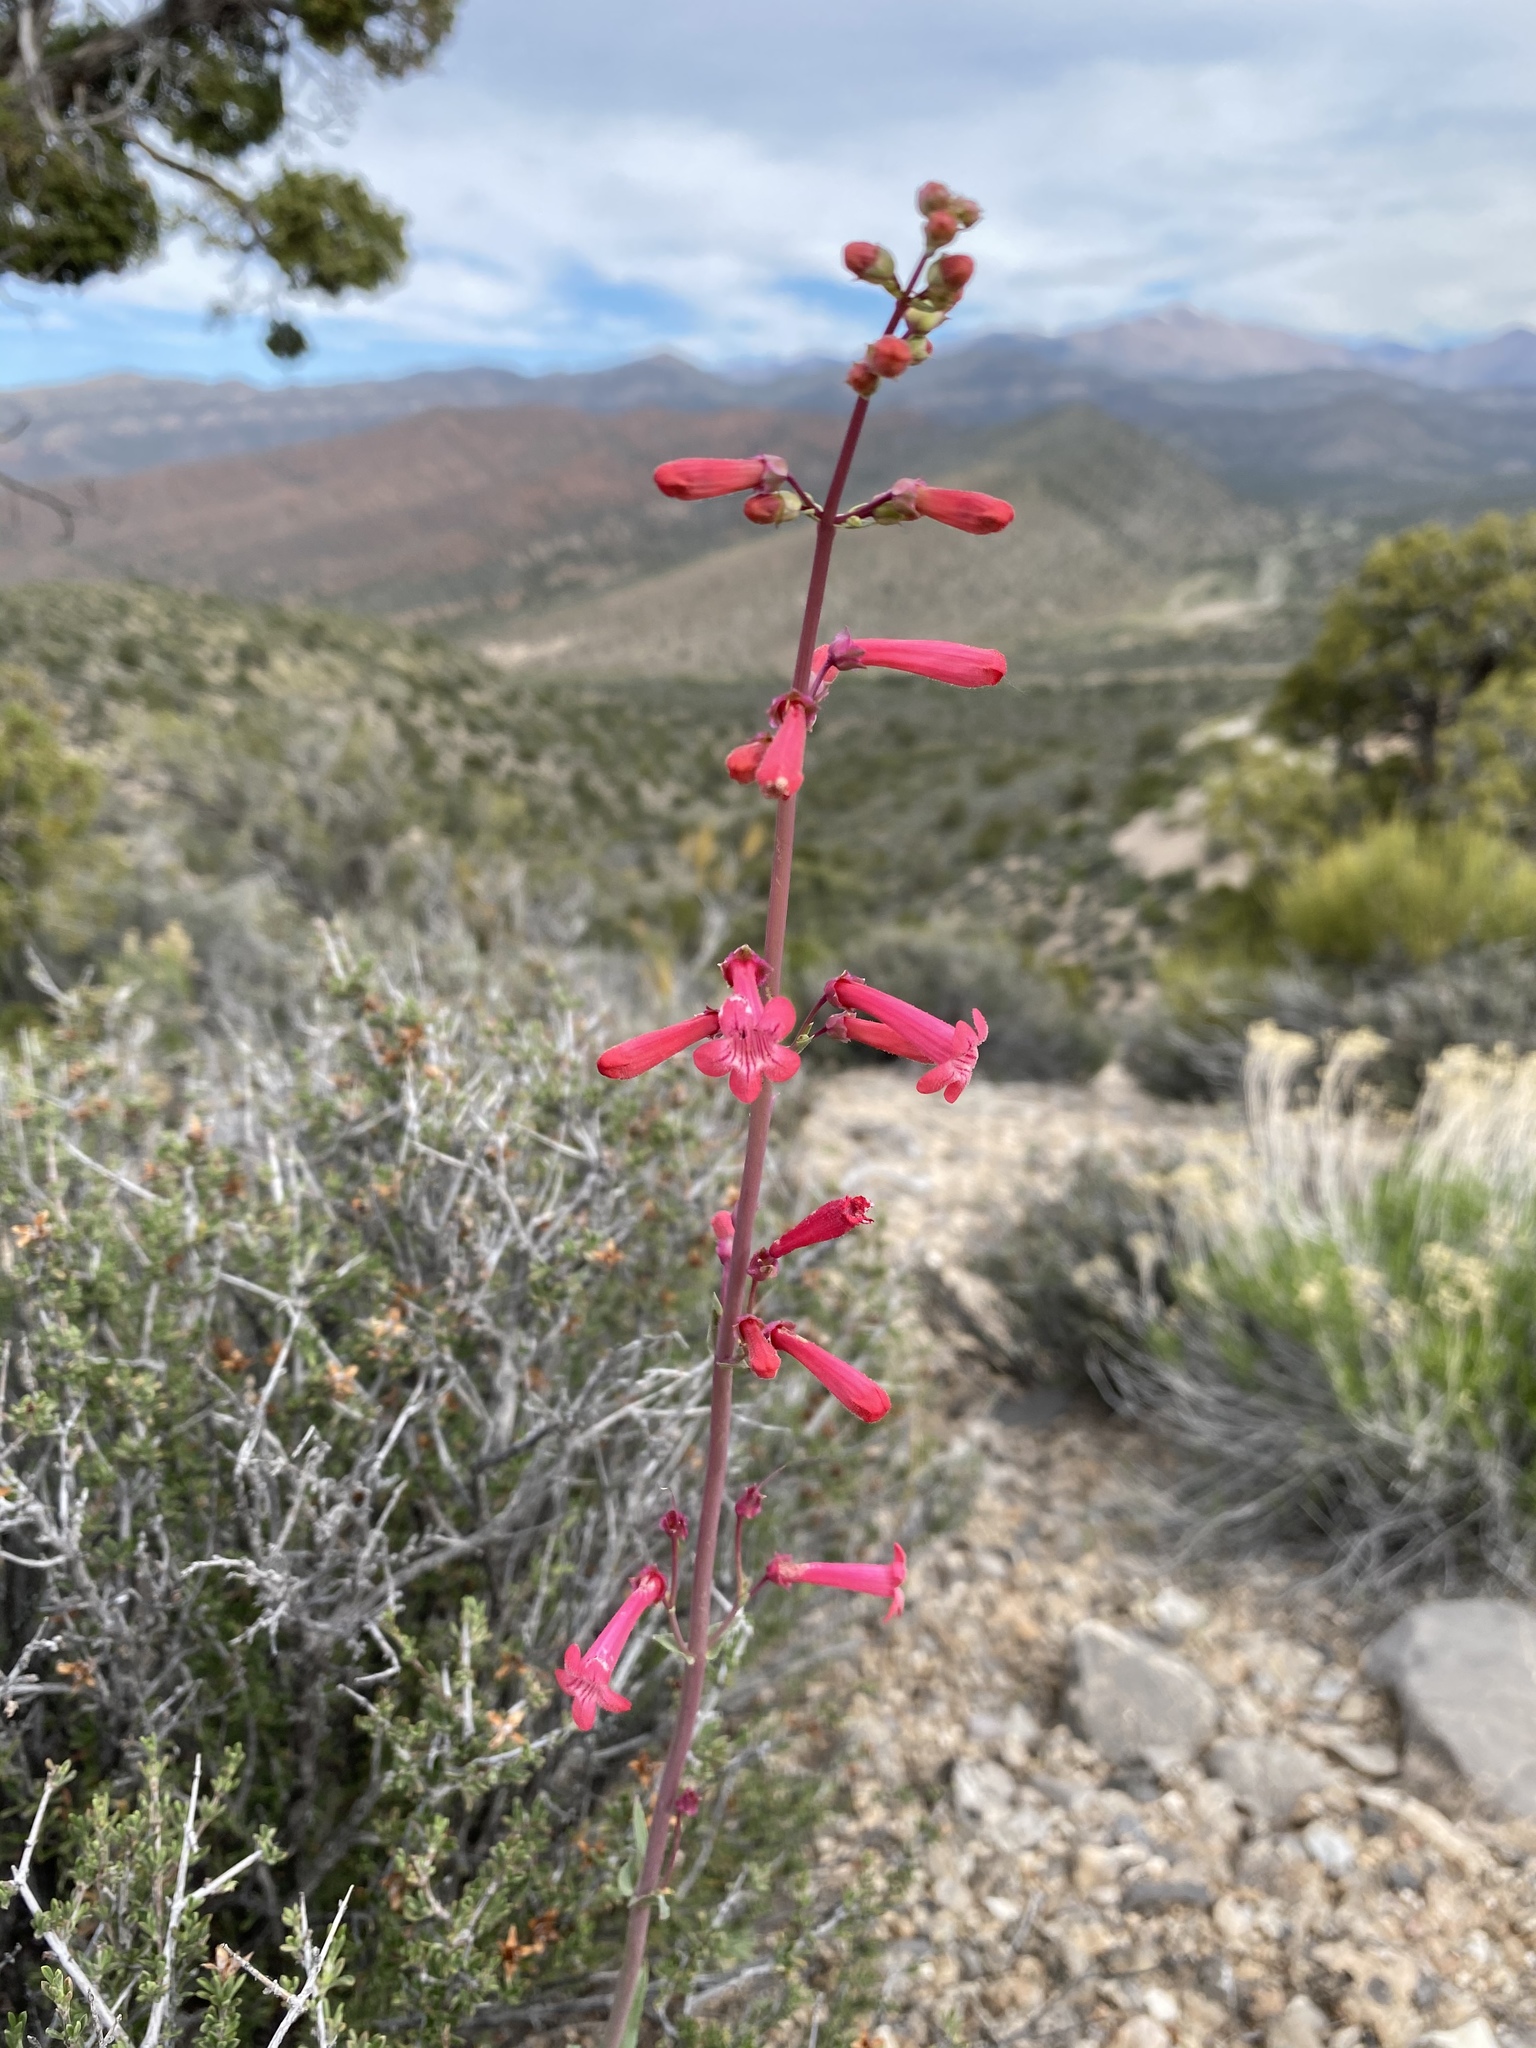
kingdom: Plantae
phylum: Tracheophyta
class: Magnoliopsida
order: Lamiales
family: Plantaginaceae
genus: Penstemon
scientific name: Penstemon utahensis
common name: Utah penstemon
